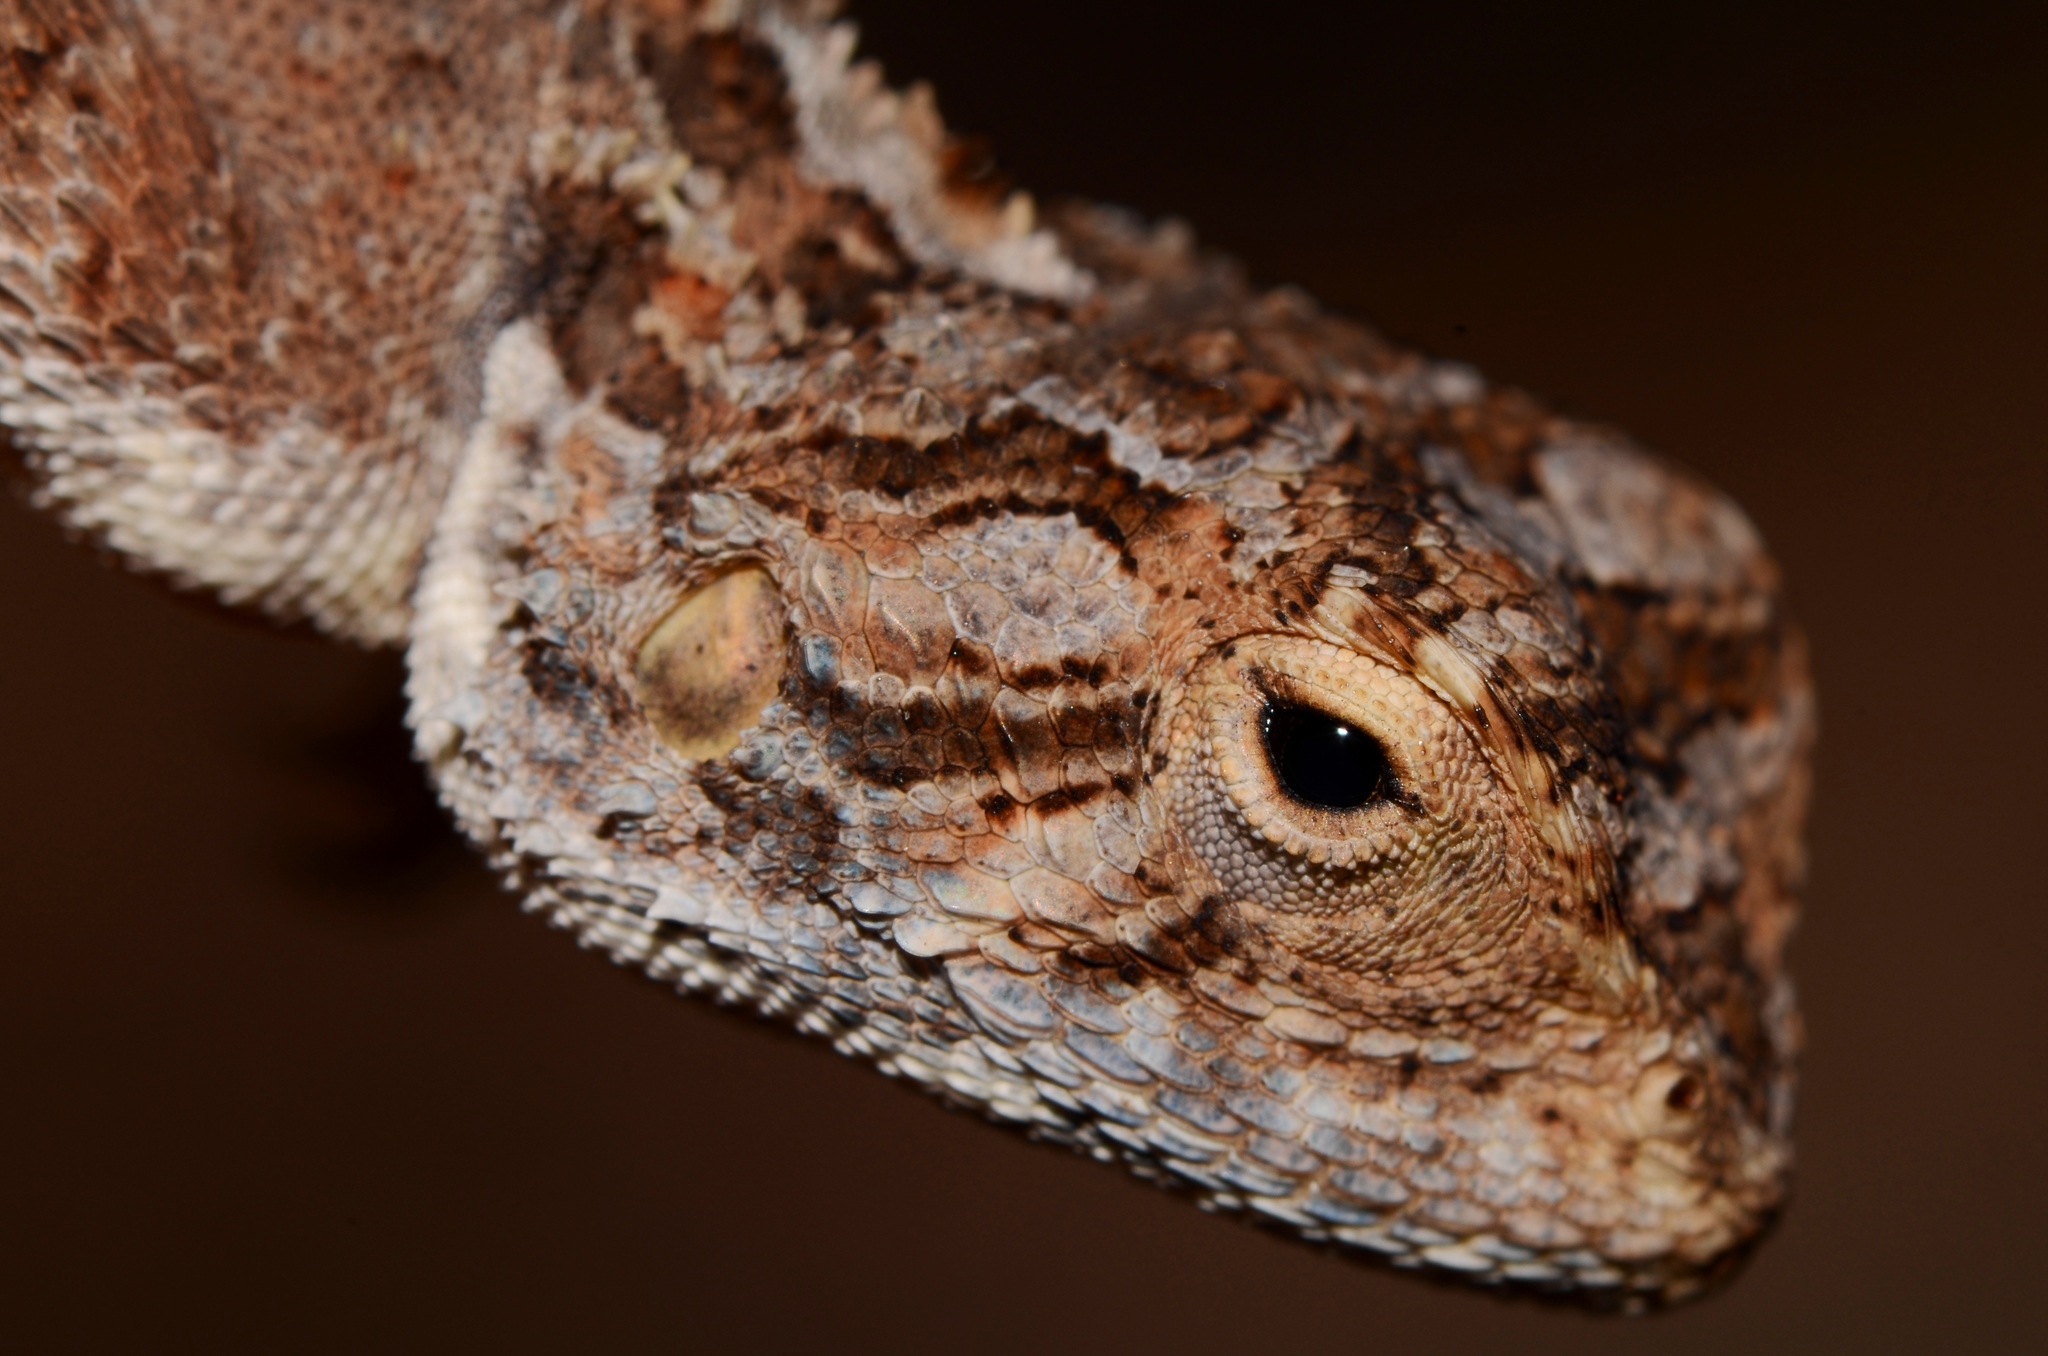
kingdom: Animalia
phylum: Chordata
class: Squamata
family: Agamidae
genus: Agama
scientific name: Agama aculeata
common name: Common ground agama
